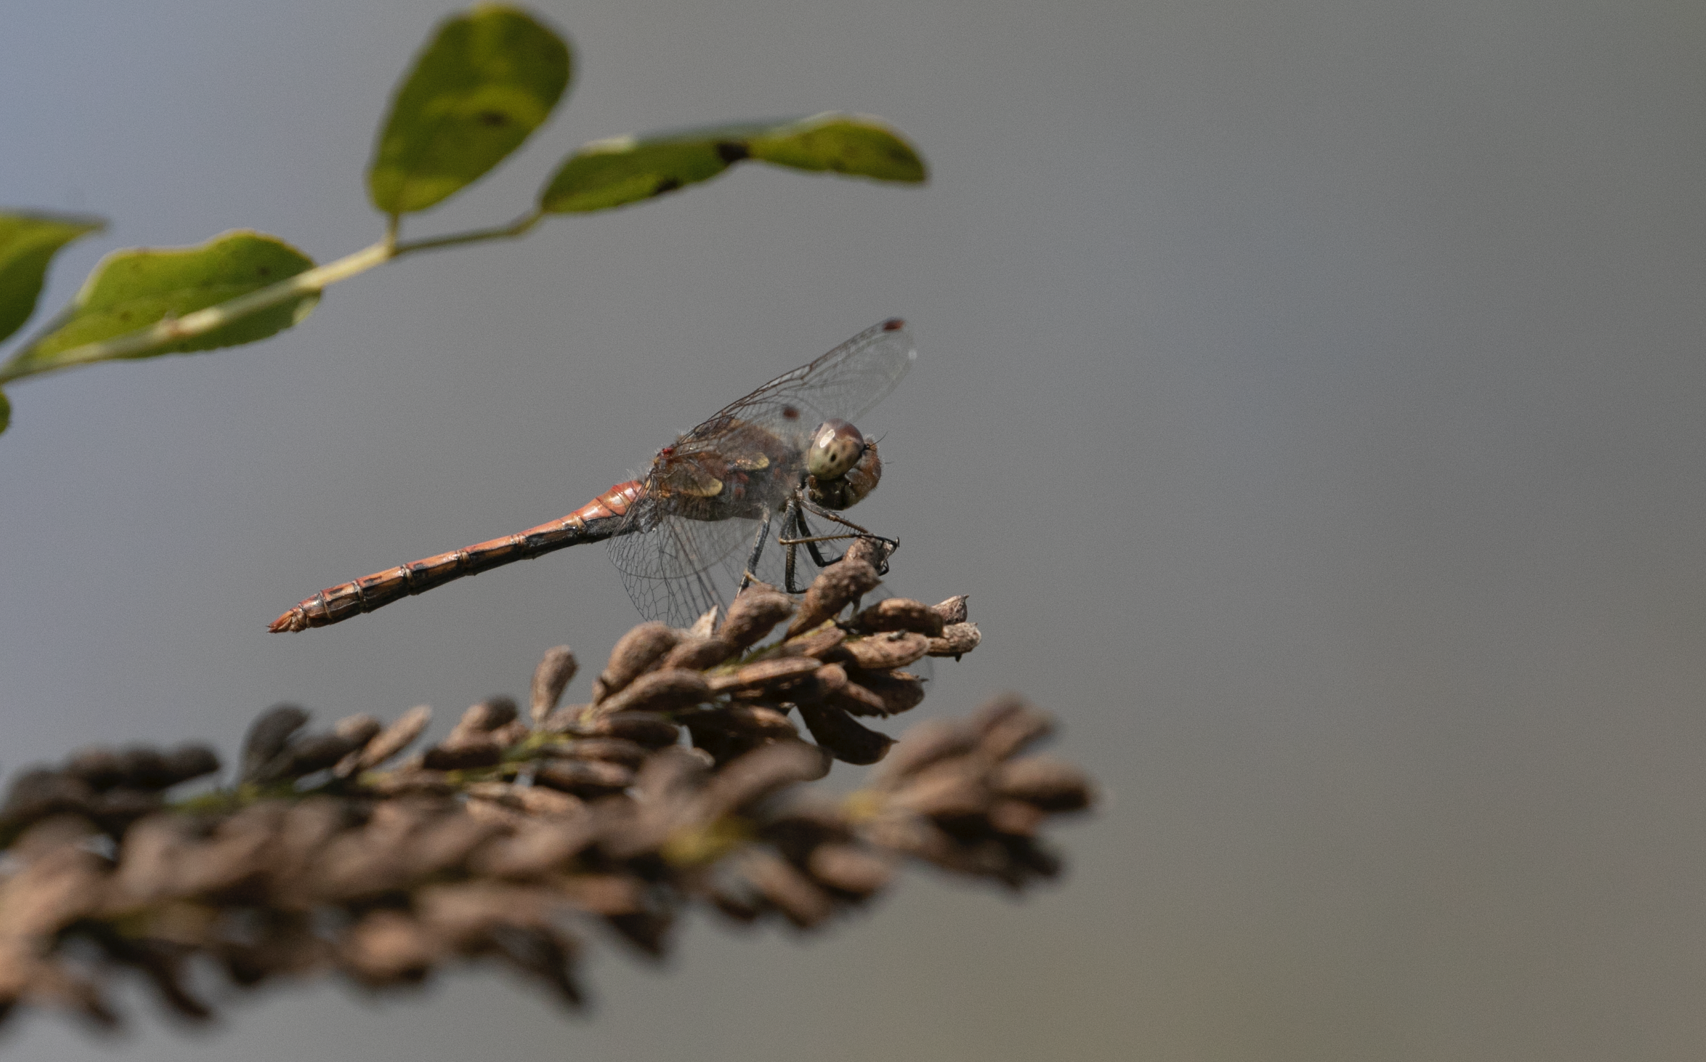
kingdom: Animalia
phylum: Arthropoda
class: Insecta
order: Odonata
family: Libellulidae
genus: Sympetrum
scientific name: Sympetrum striolatum
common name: Common darter
